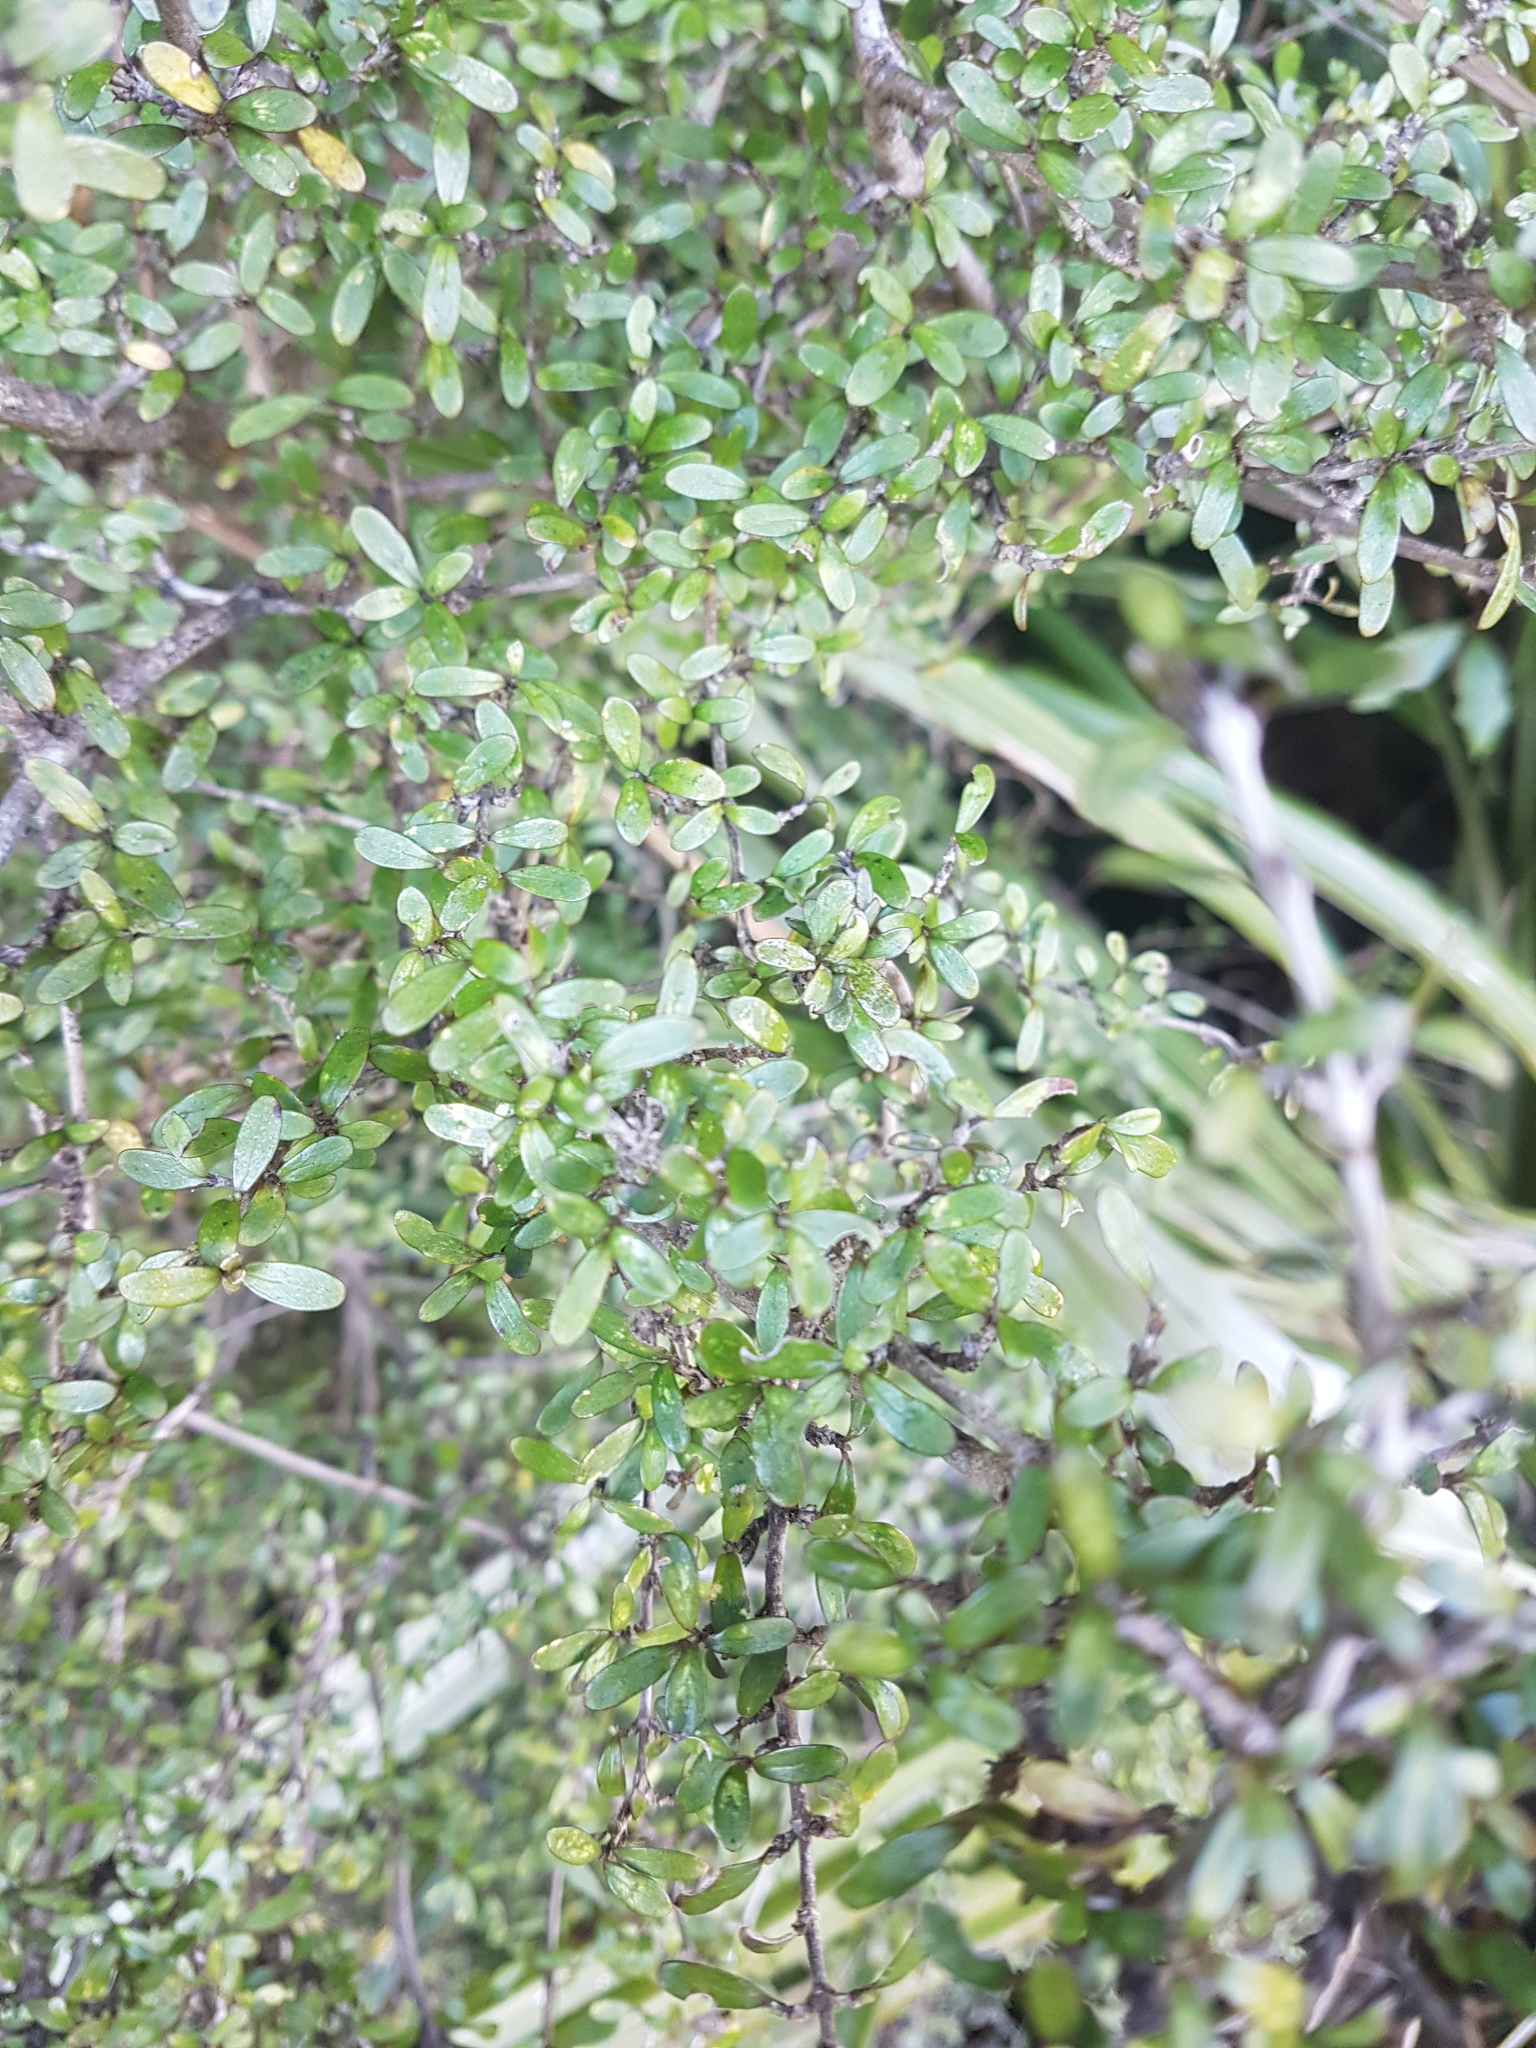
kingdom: Plantae
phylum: Tracheophyta
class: Magnoliopsida
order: Gentianales
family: Rubiaceae
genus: Coprosma
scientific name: Coprosma dumosa
